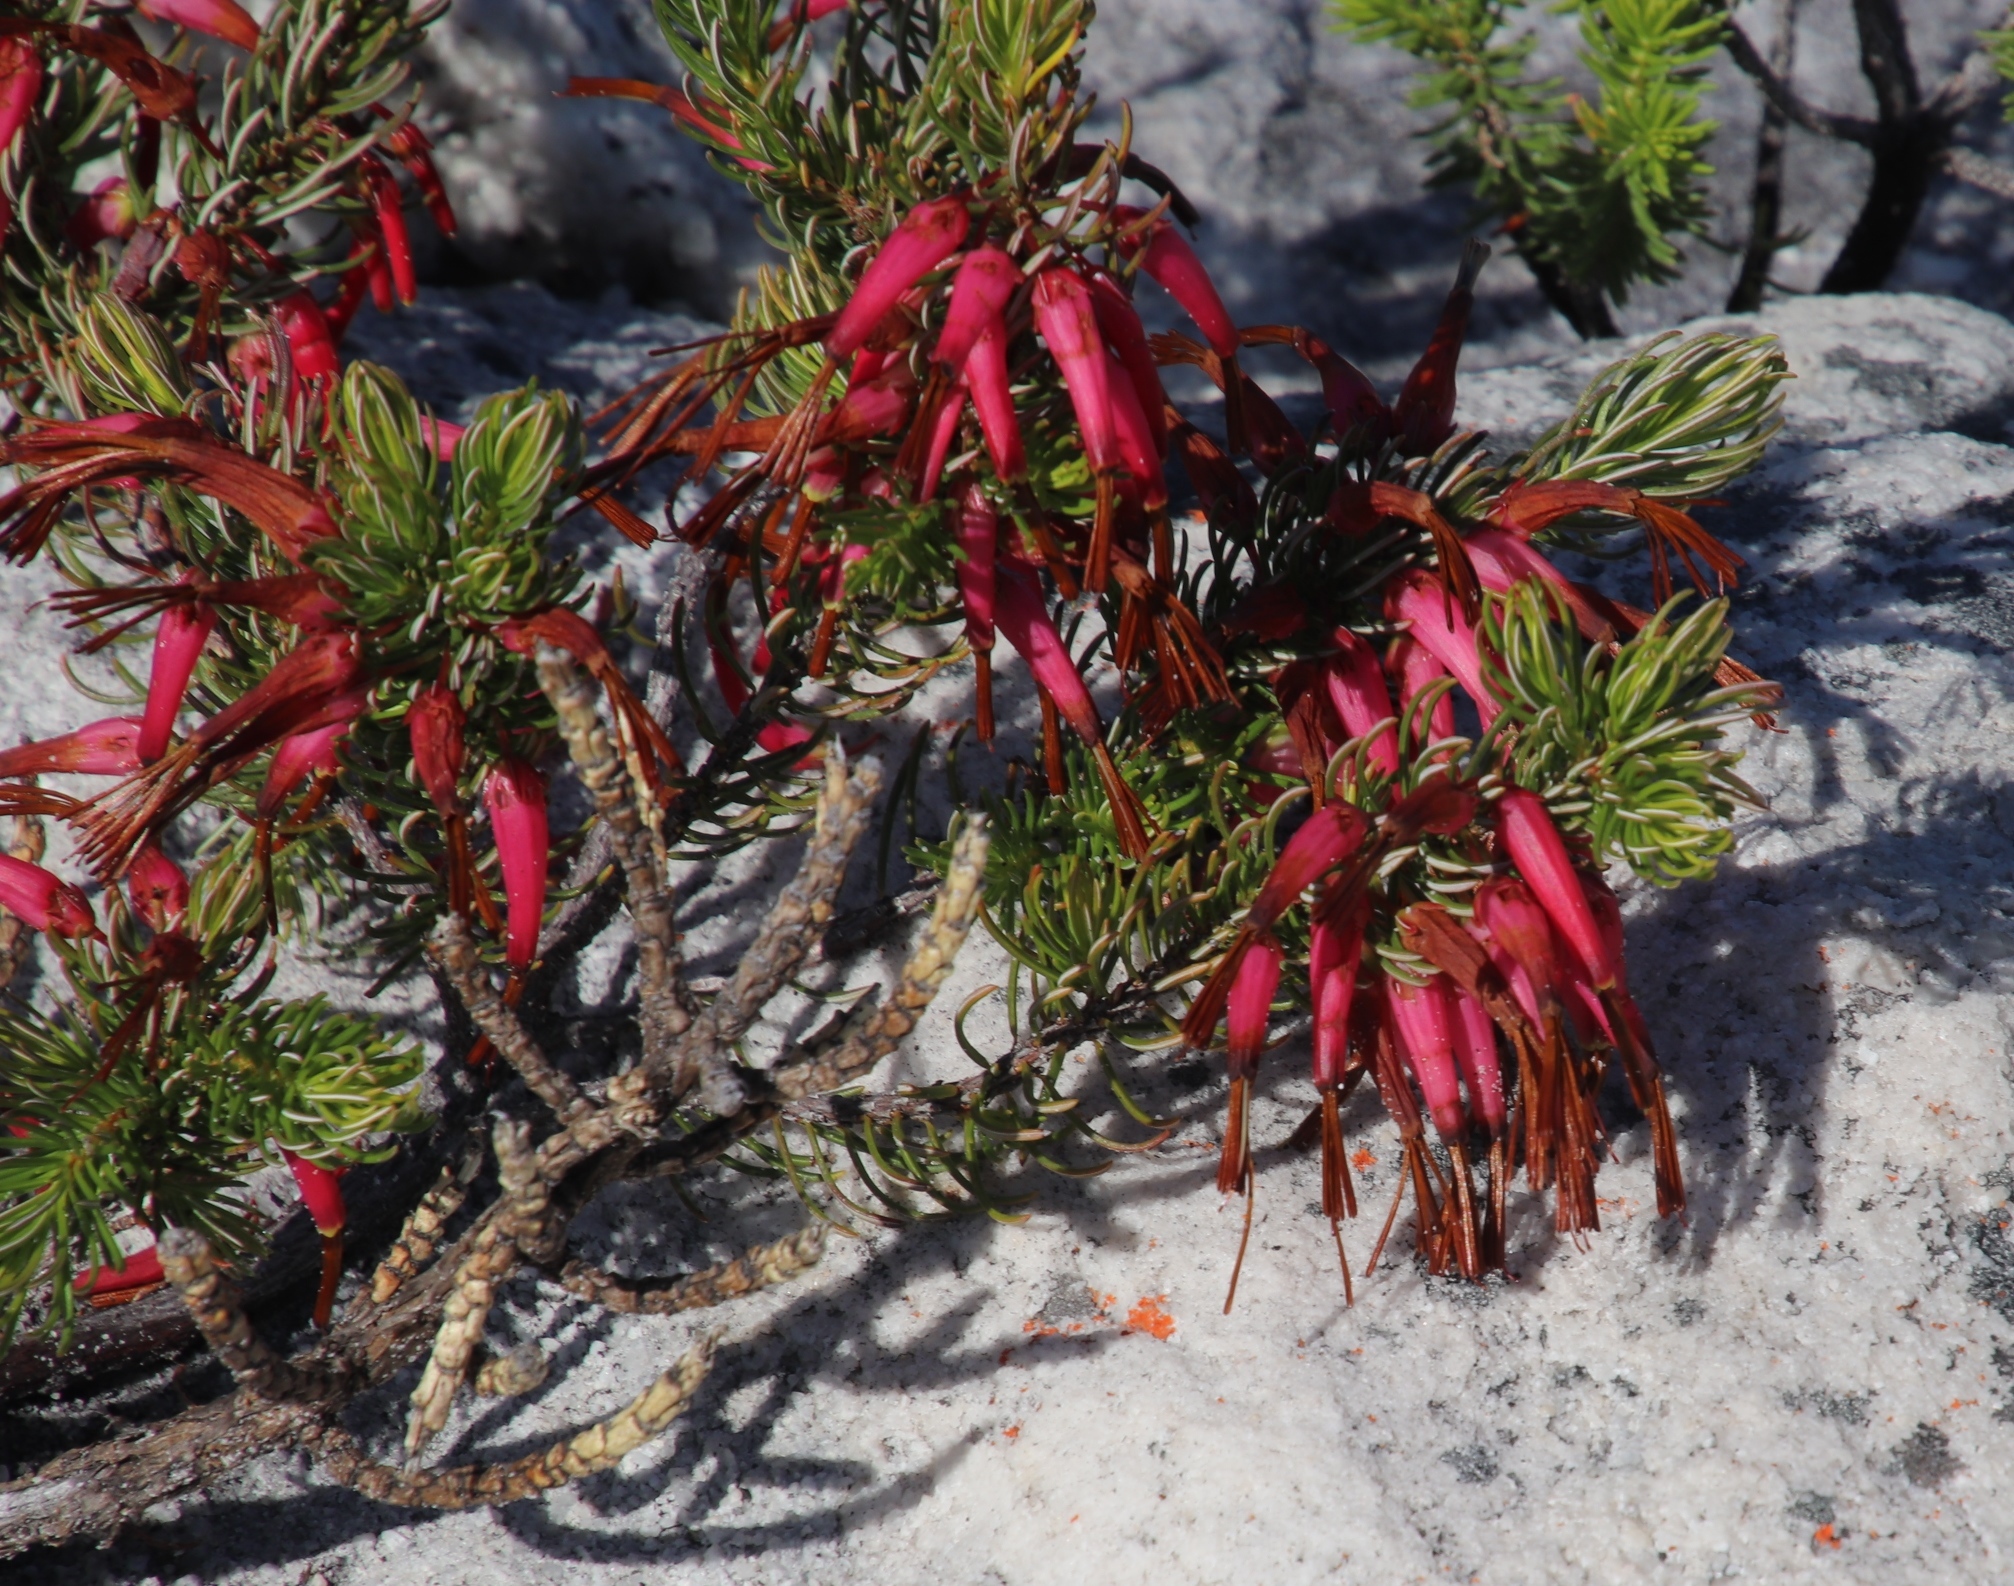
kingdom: Plantae
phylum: Tracheophyta
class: Magnoliopsida
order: Ericales
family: Ericaceae
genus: Erica
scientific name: Erica plukenetii
